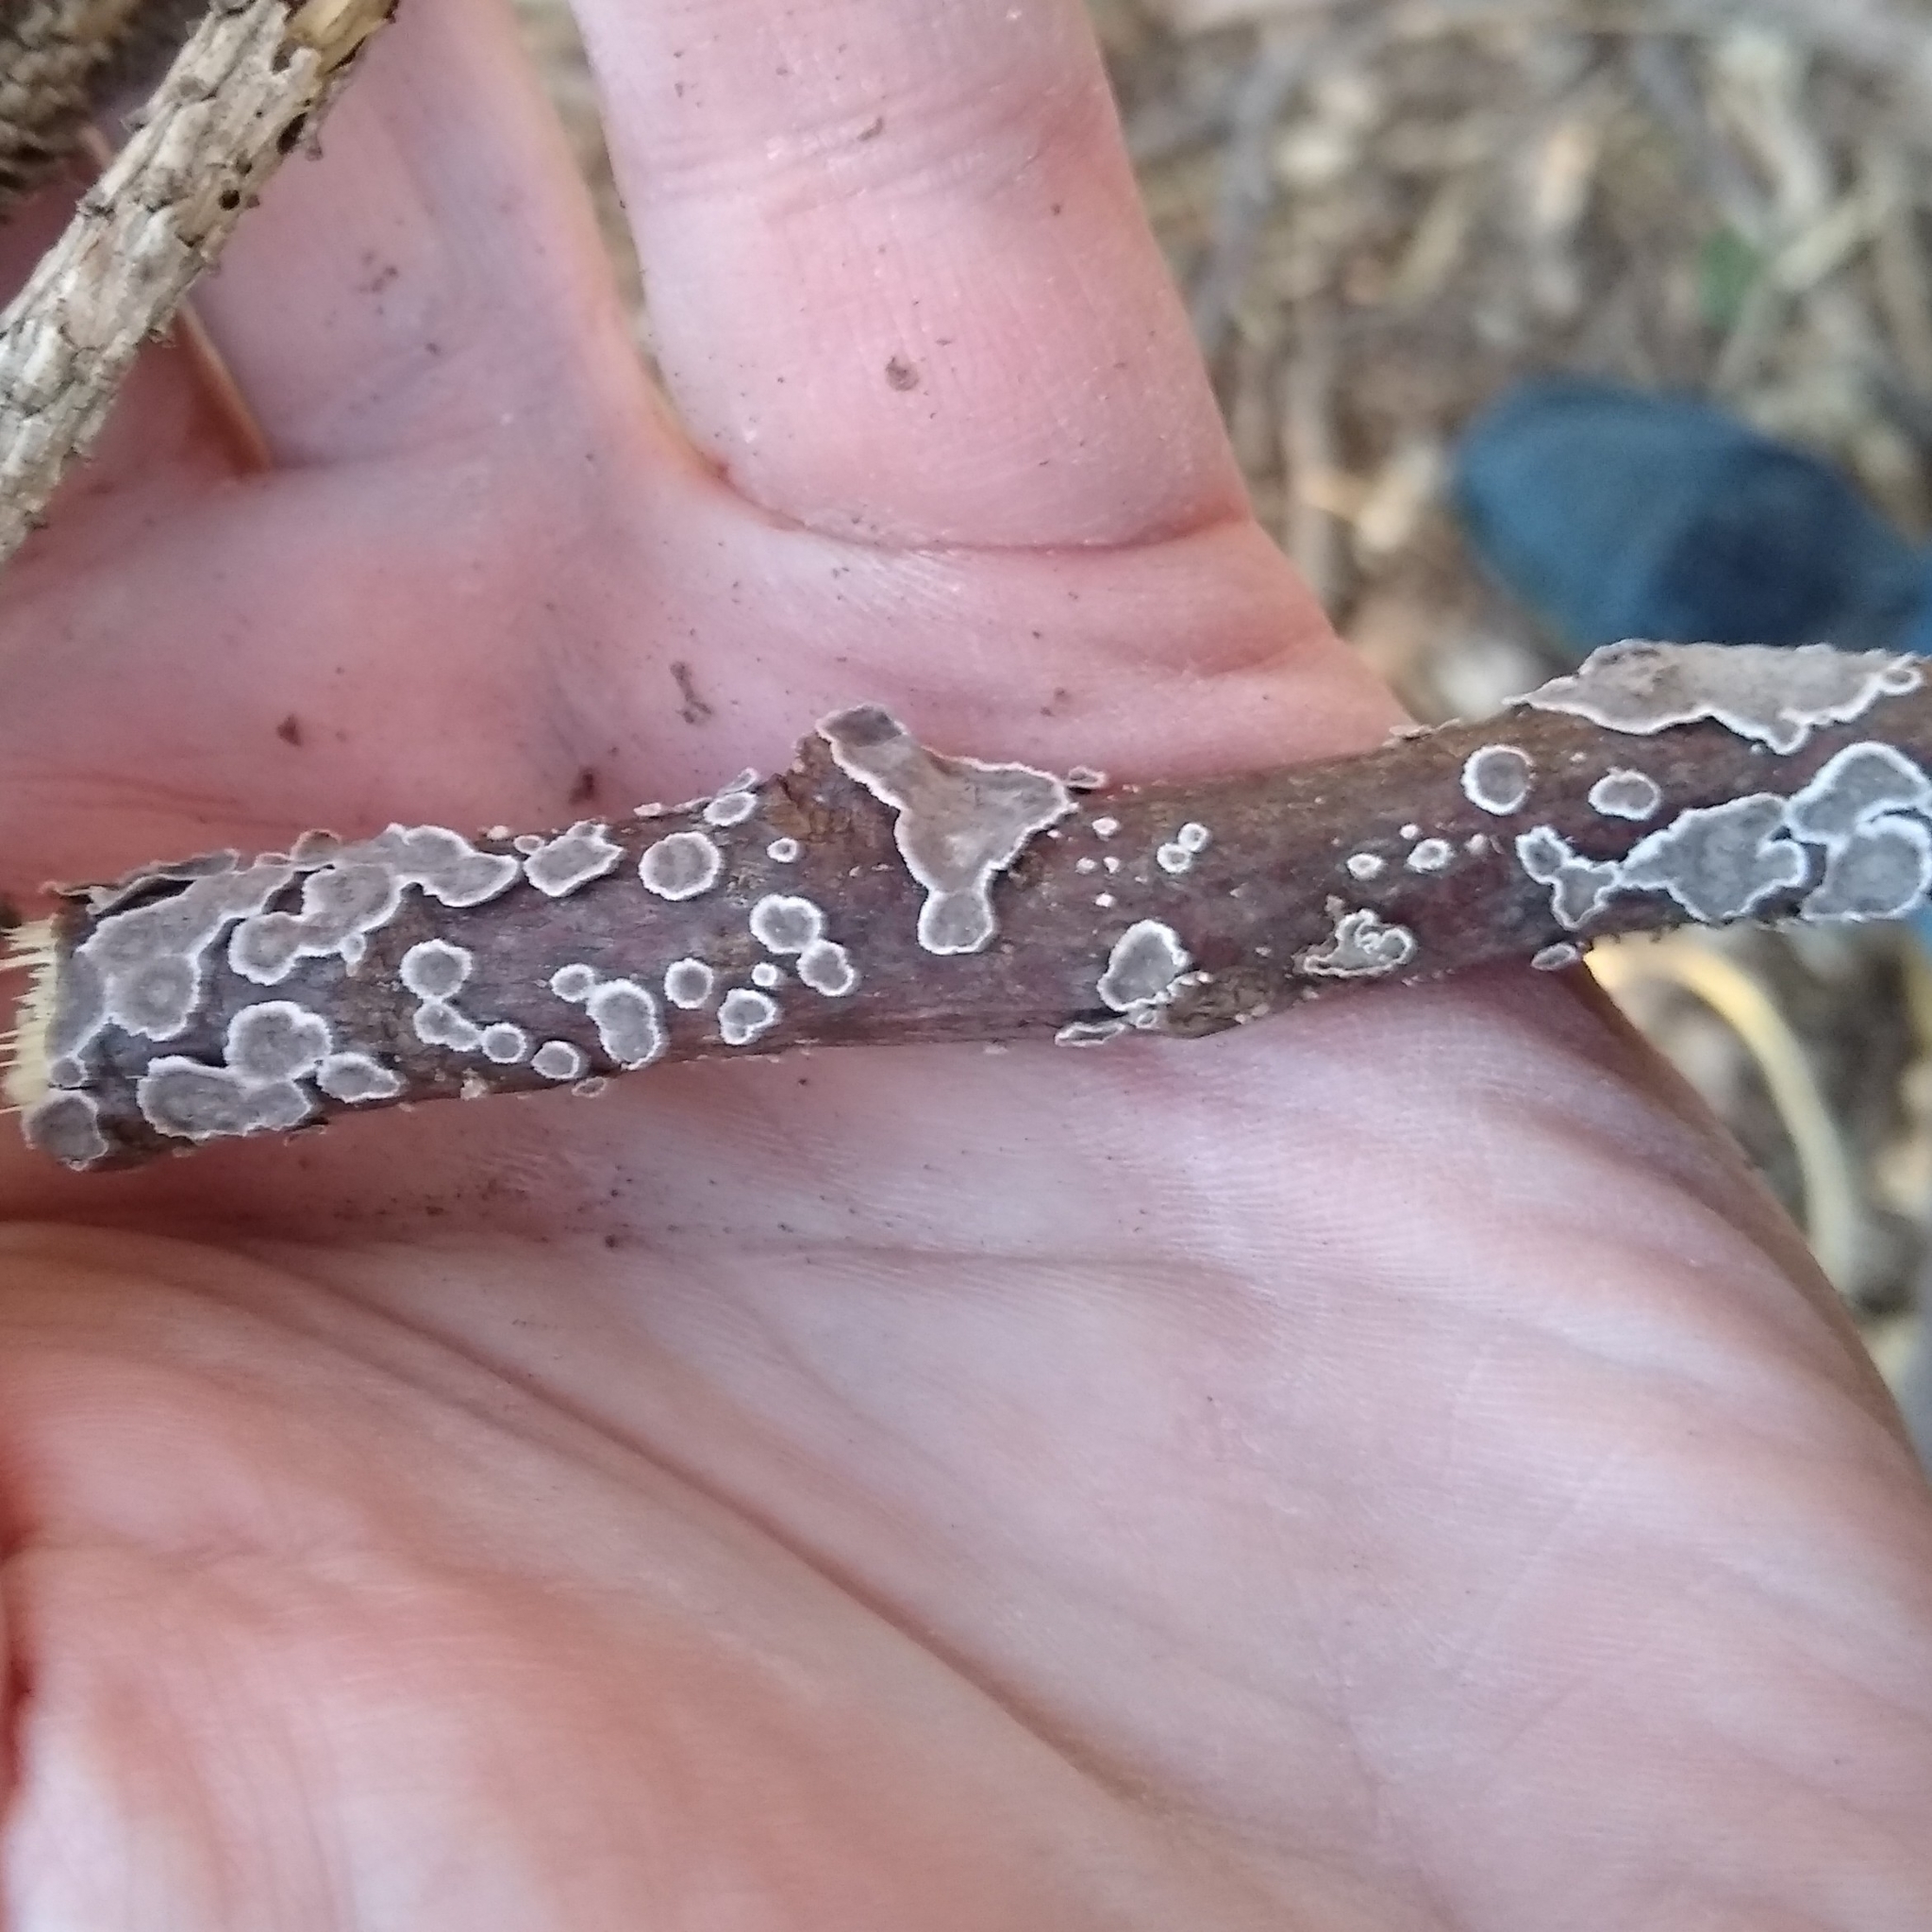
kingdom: Fungi
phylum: Basidiomycota
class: Agaricomycetes
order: Russulales
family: Peniophoraceae
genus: Peniophora
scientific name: Peniophora albobadia
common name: Giraffe spots
